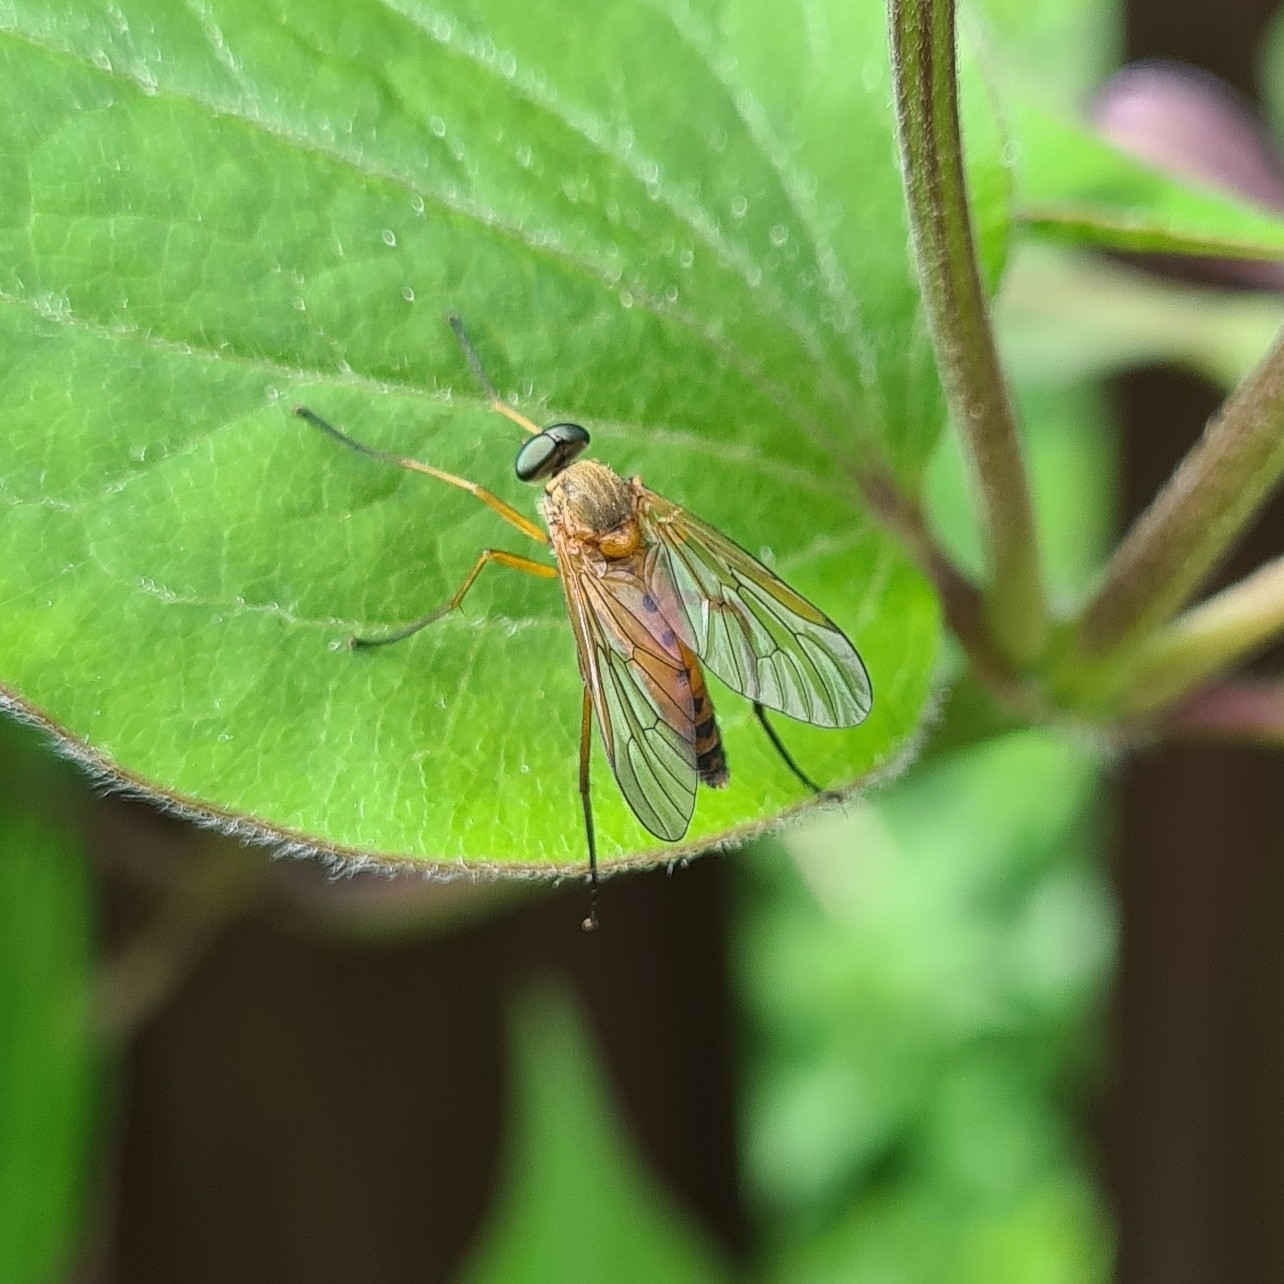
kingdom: Animalia
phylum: Arthropoda
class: Insecta
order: Diptera
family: Rhagionidae
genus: Rhagio
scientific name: Rhagio tringaria
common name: Marsh snipefly
